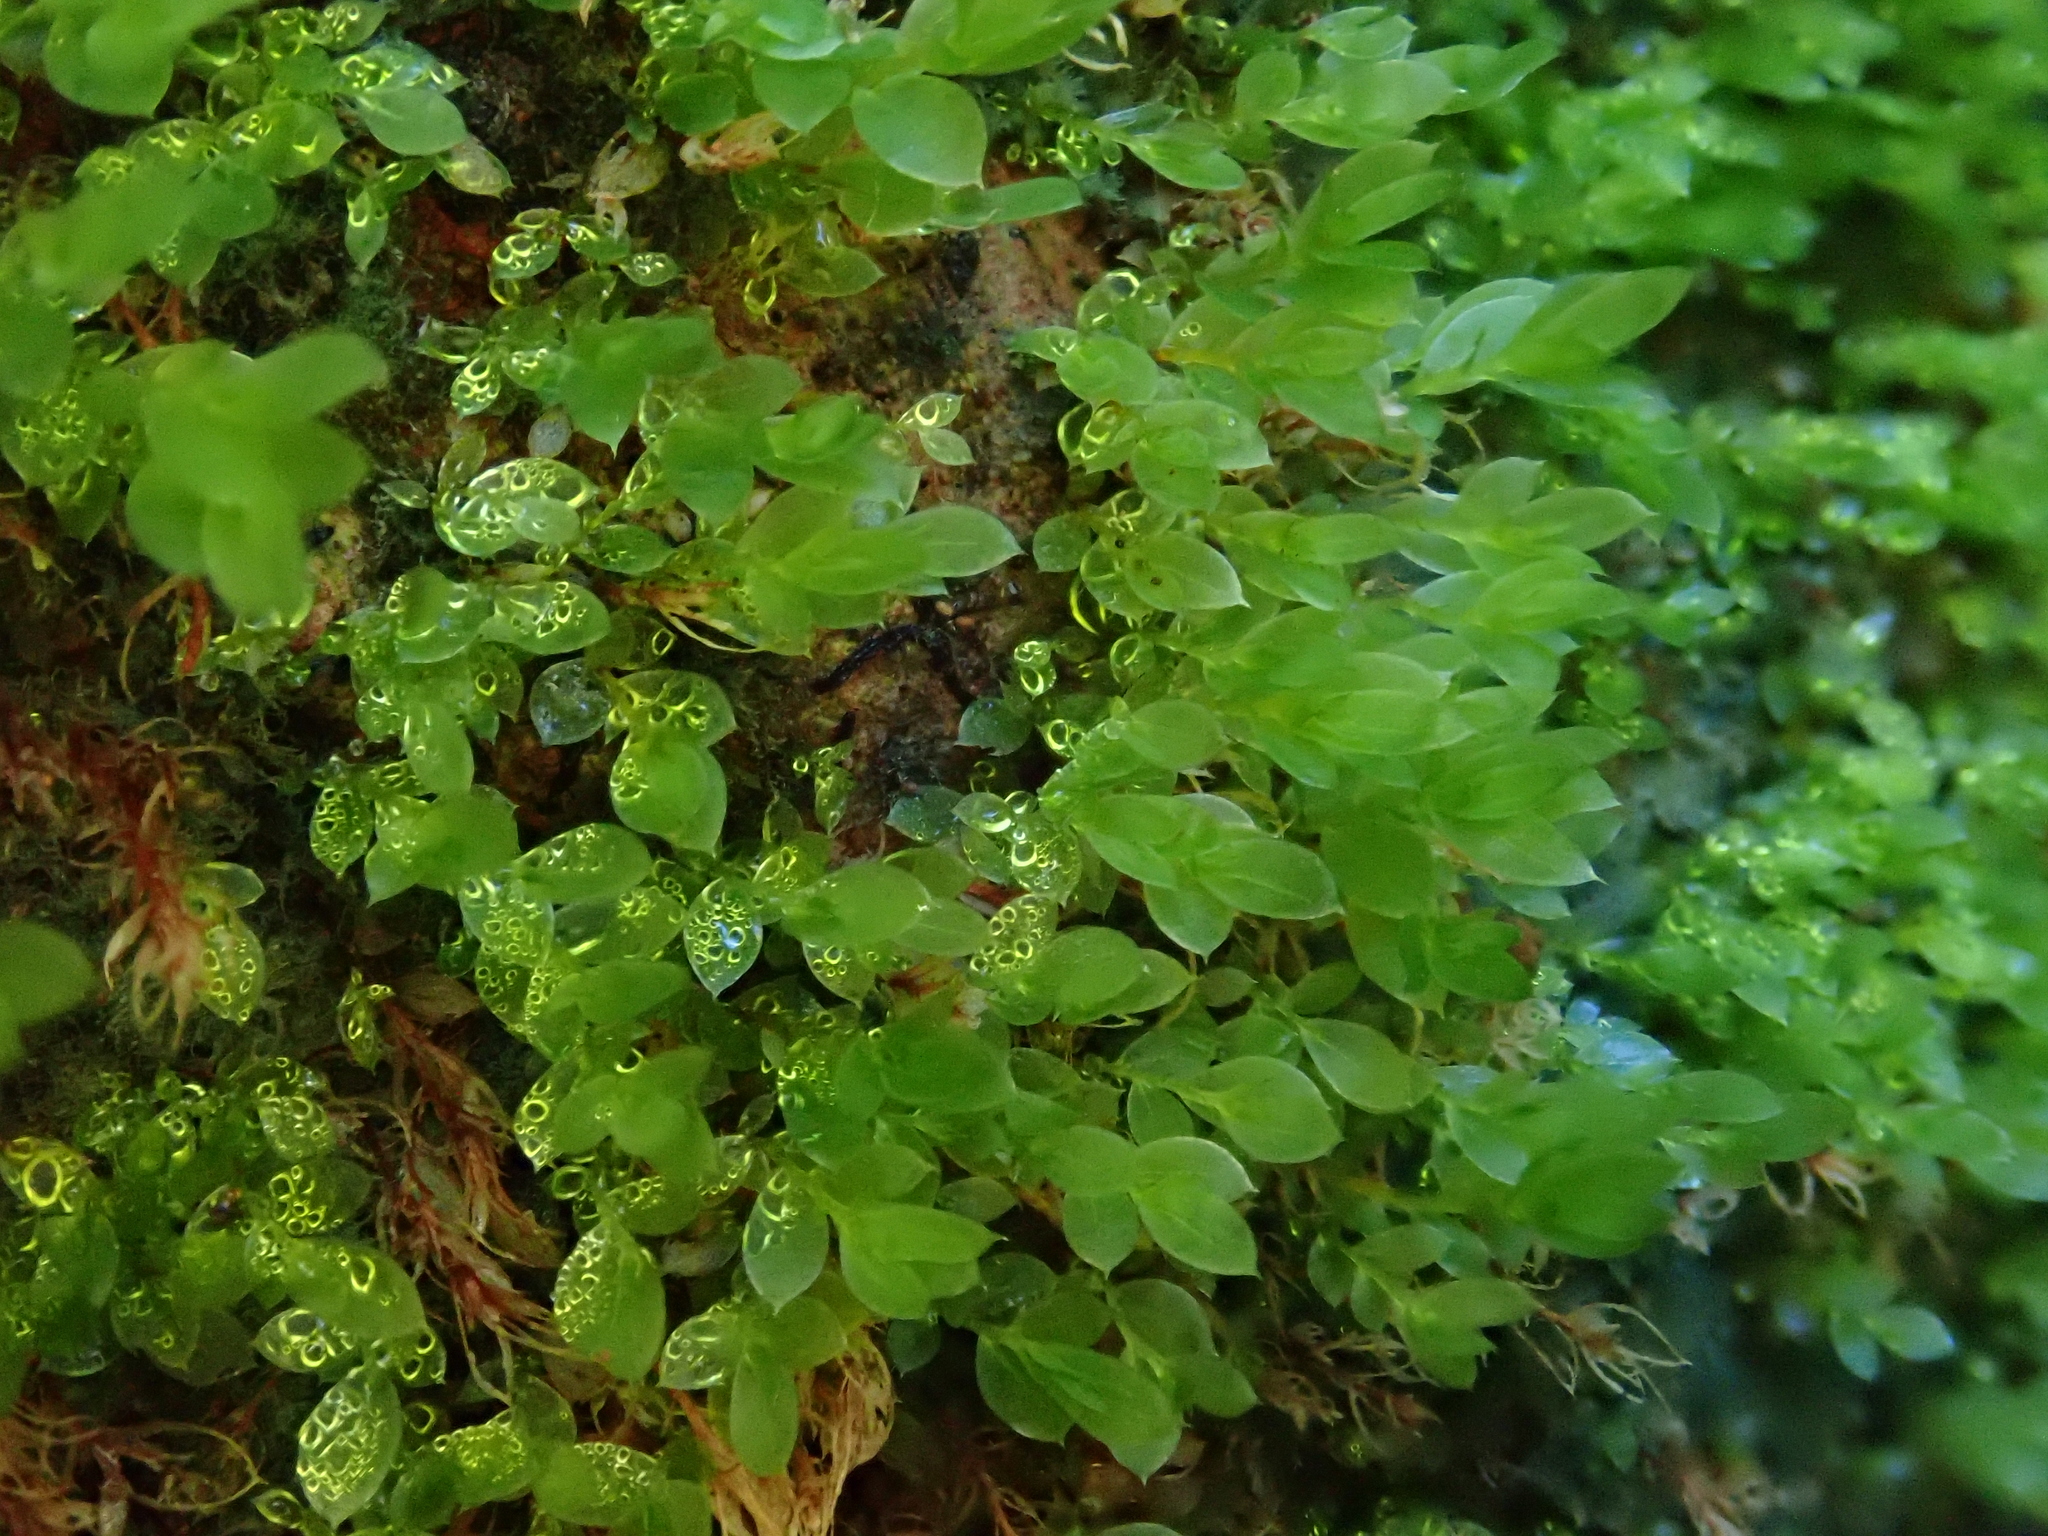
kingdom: Plantae
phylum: Bryophyta
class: Bryopsida
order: Bryales
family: Mniaceae
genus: Epipterygium
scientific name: Epipterygium tozeri
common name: Tozer's thread-moss
